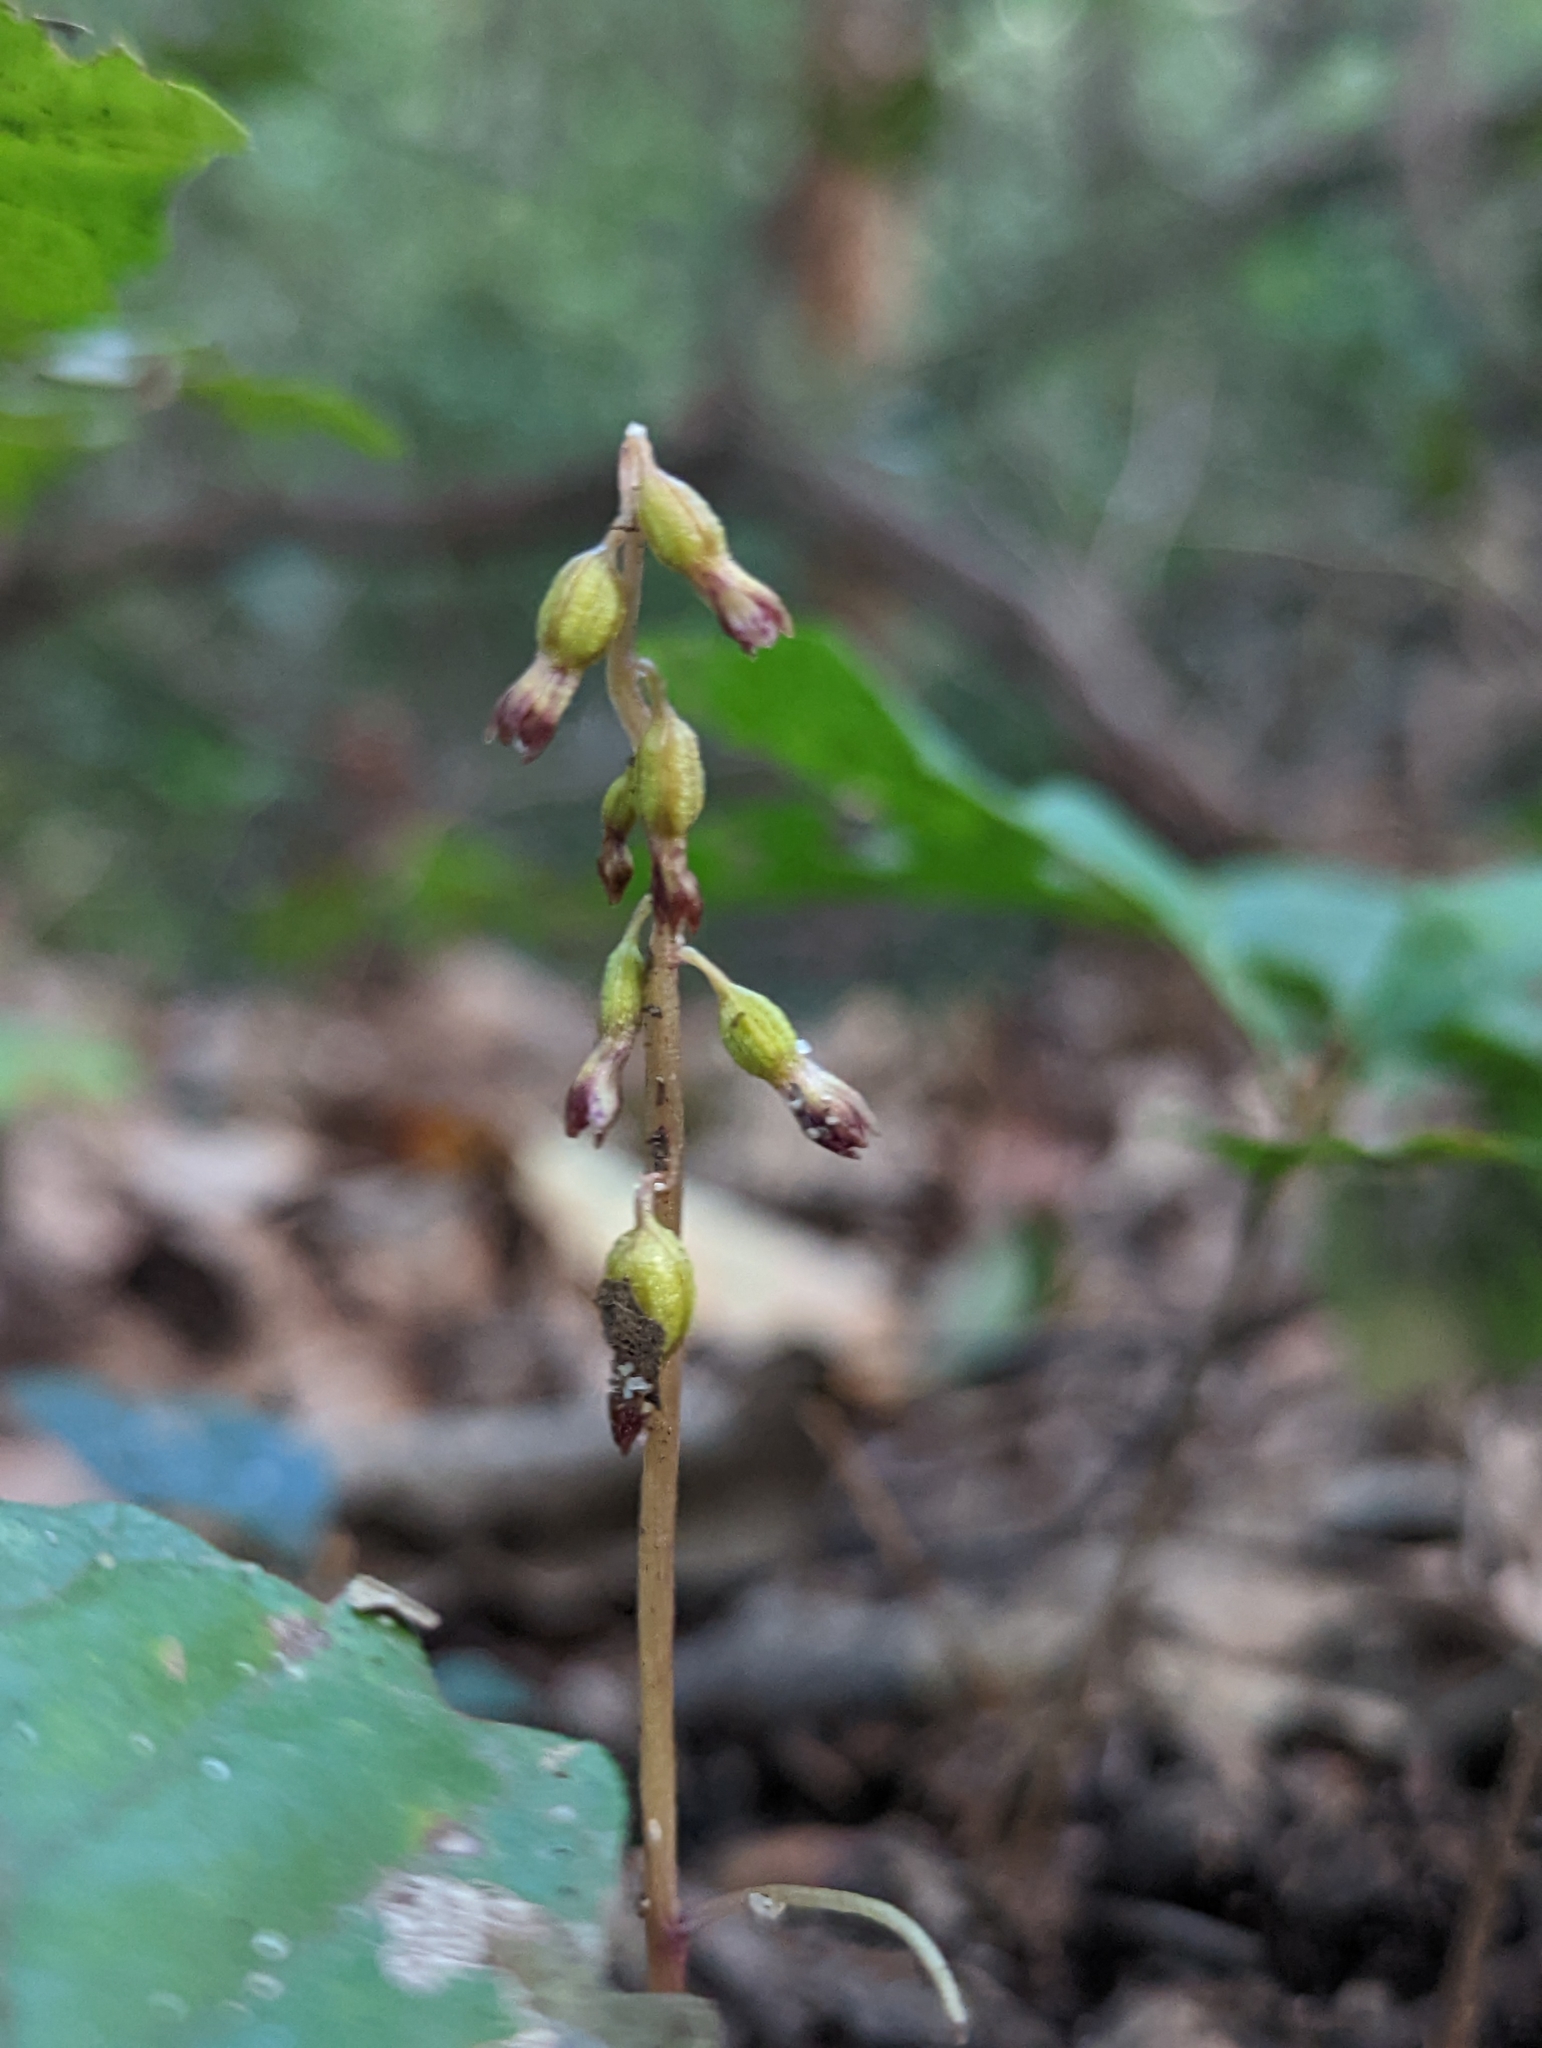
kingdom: Plantae
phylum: Tracheophyta
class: Liliopsida
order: Asparagales
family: Orchidaceae
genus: Corallorhiza
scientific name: Corallorhiza odontorhiza
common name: Autumn coralroot
